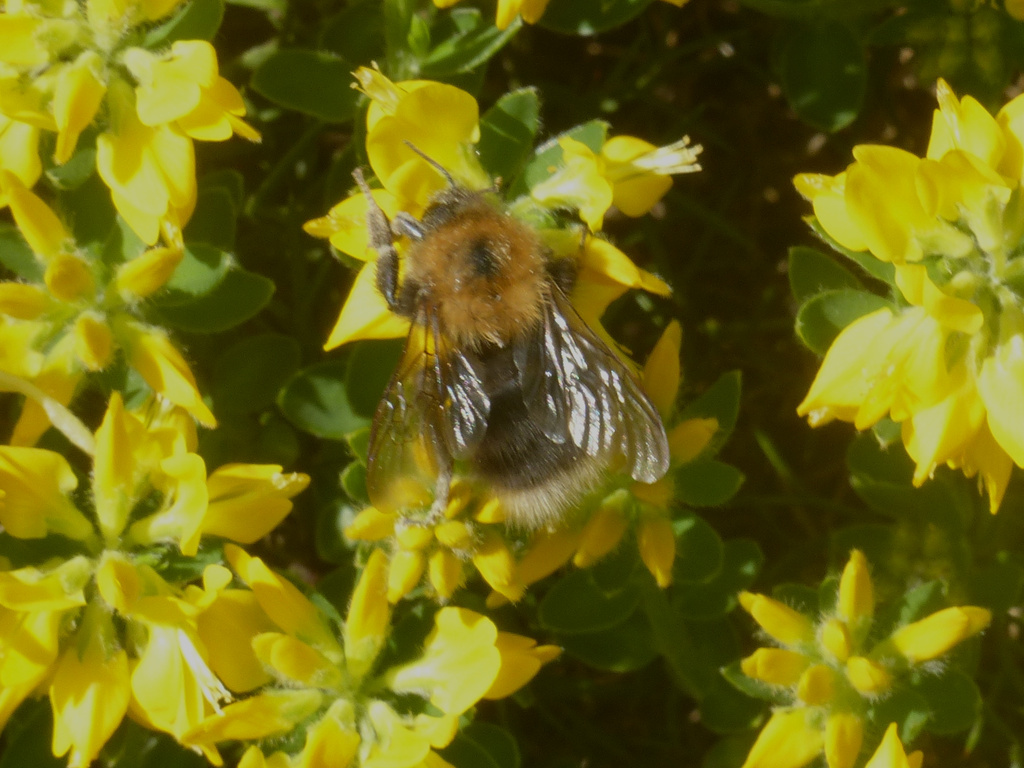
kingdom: Animalia
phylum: Arthropoda
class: Insecta
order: Hymenoptera
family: Apidae
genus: Bombus
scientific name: Bombus hypnorum
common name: New garden bumblebee
